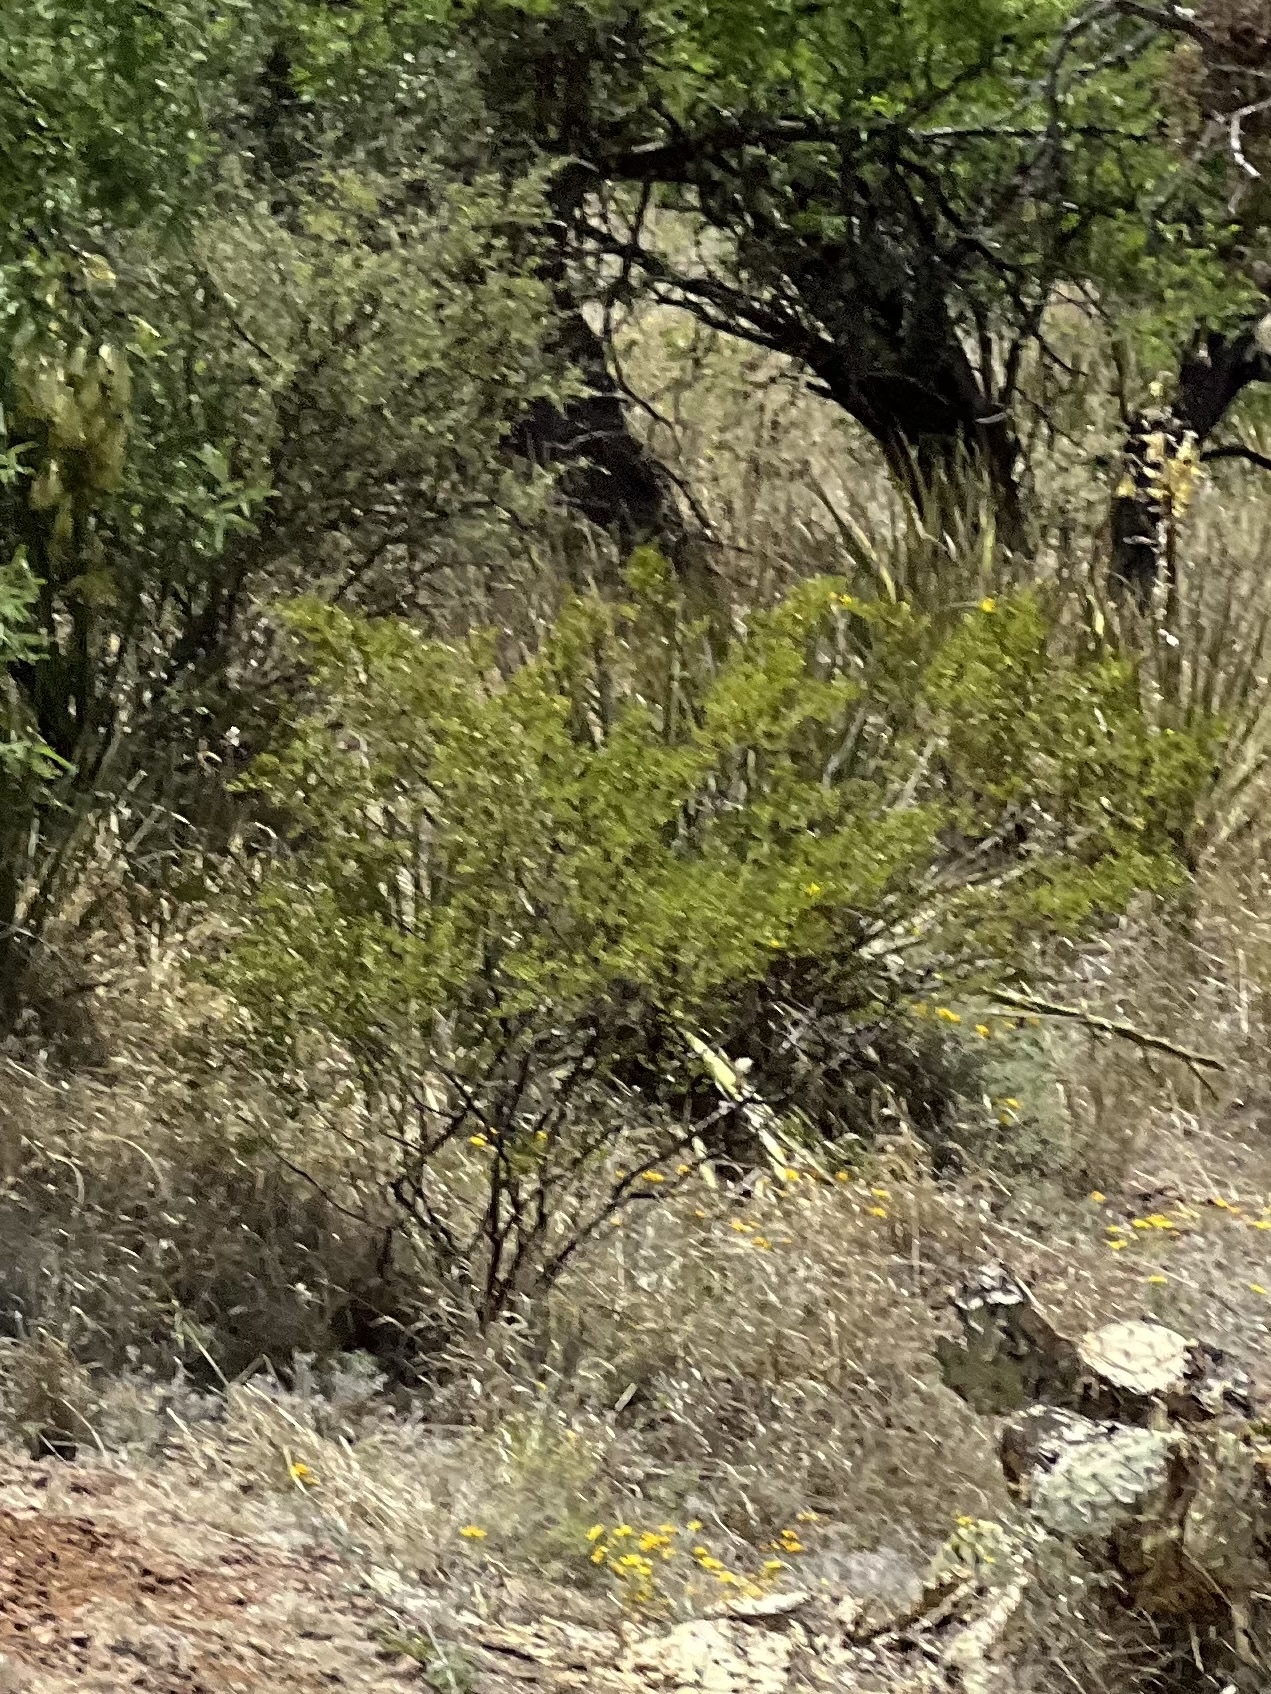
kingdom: Plantae
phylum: Tracheophyta
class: Magnoliopsida
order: Zygophyllales
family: Zygophyllaceae
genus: Larrea
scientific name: Larrea tridentata
